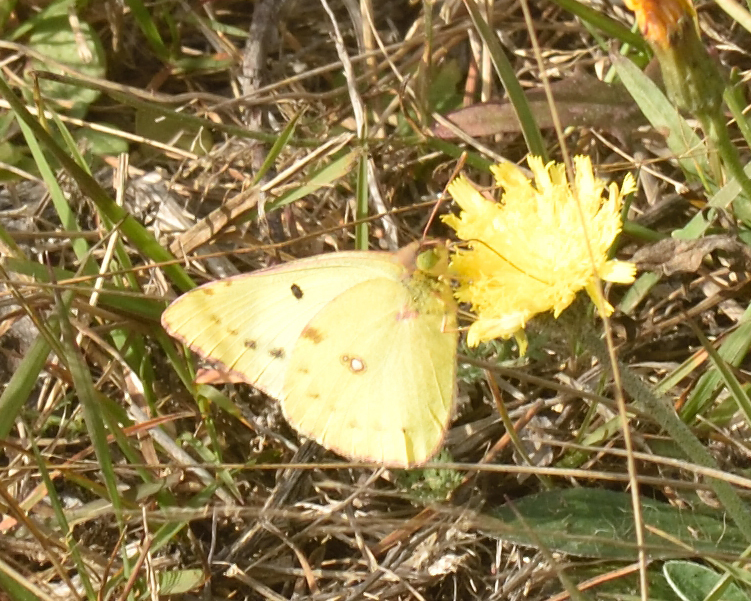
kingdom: Animalia
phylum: Arthropoda
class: Insecta
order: Lepidoptera
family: Pieridae
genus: Colias
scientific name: Colias hyale
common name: Pale clouded yellow
